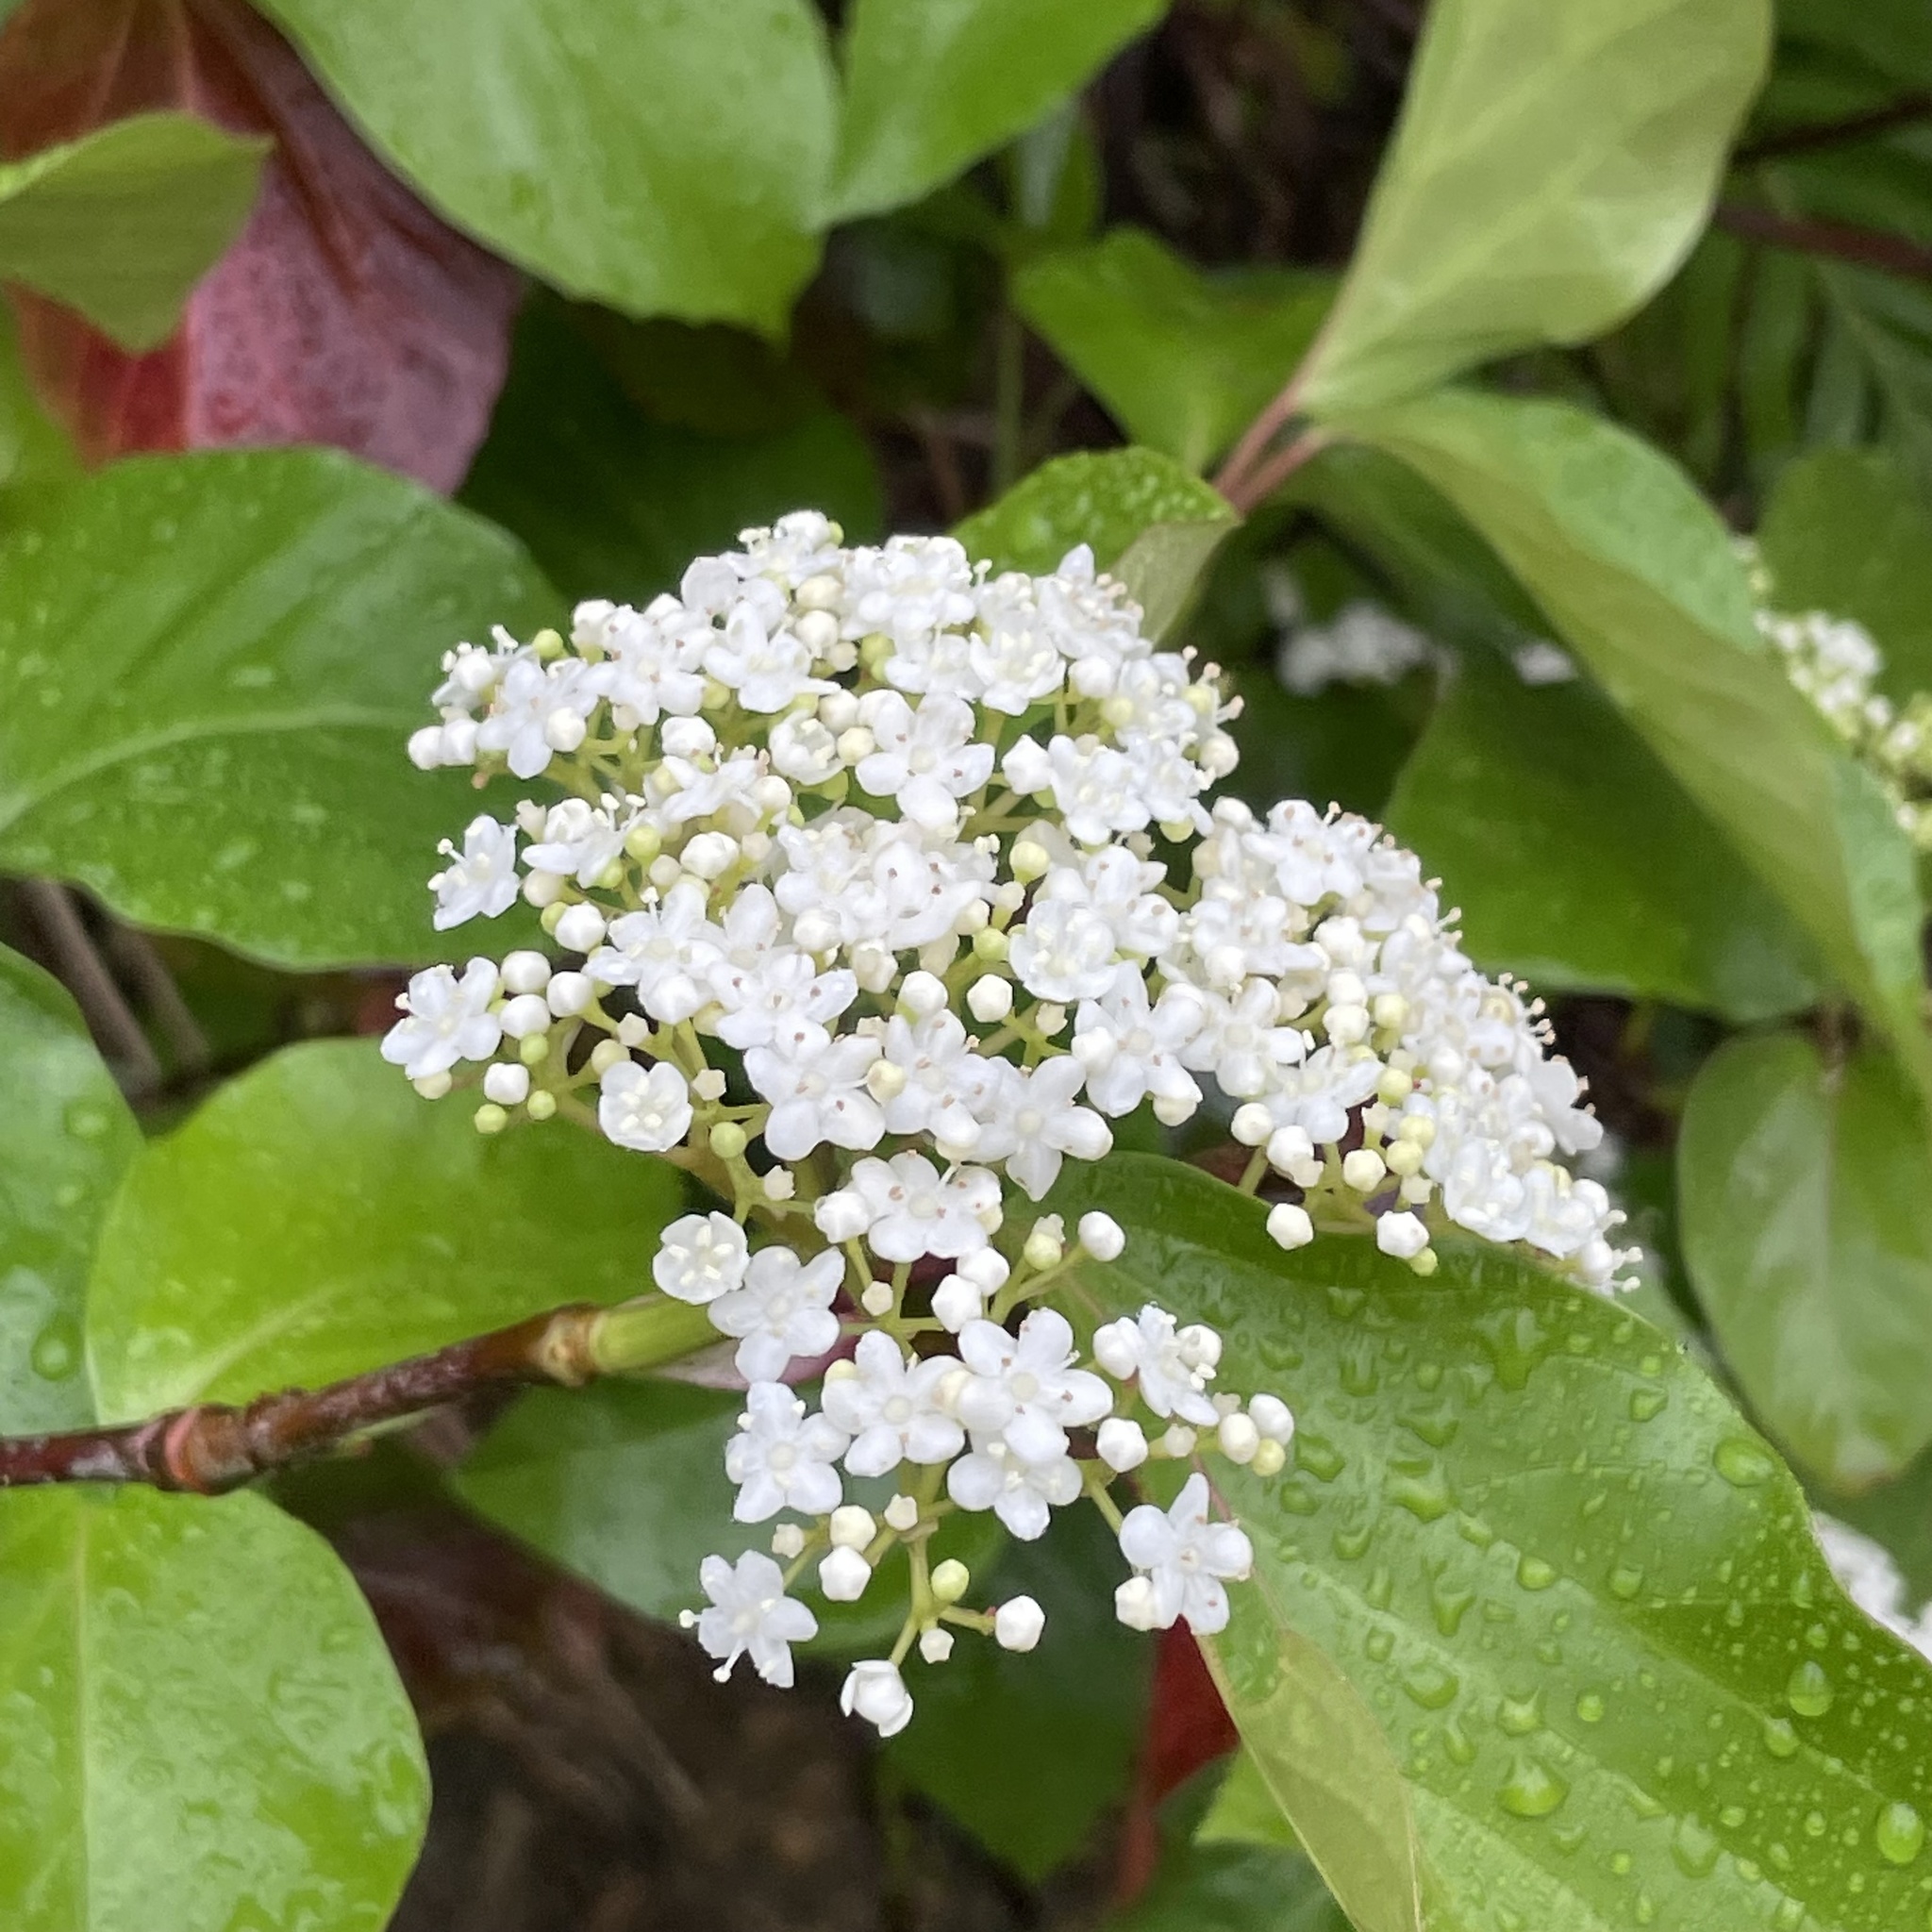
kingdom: Plantae
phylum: Tracheophyta
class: Magnoliopsida
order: Dipsacales
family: Viburnaceae
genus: Viburnum
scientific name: Viburnum japonicum
